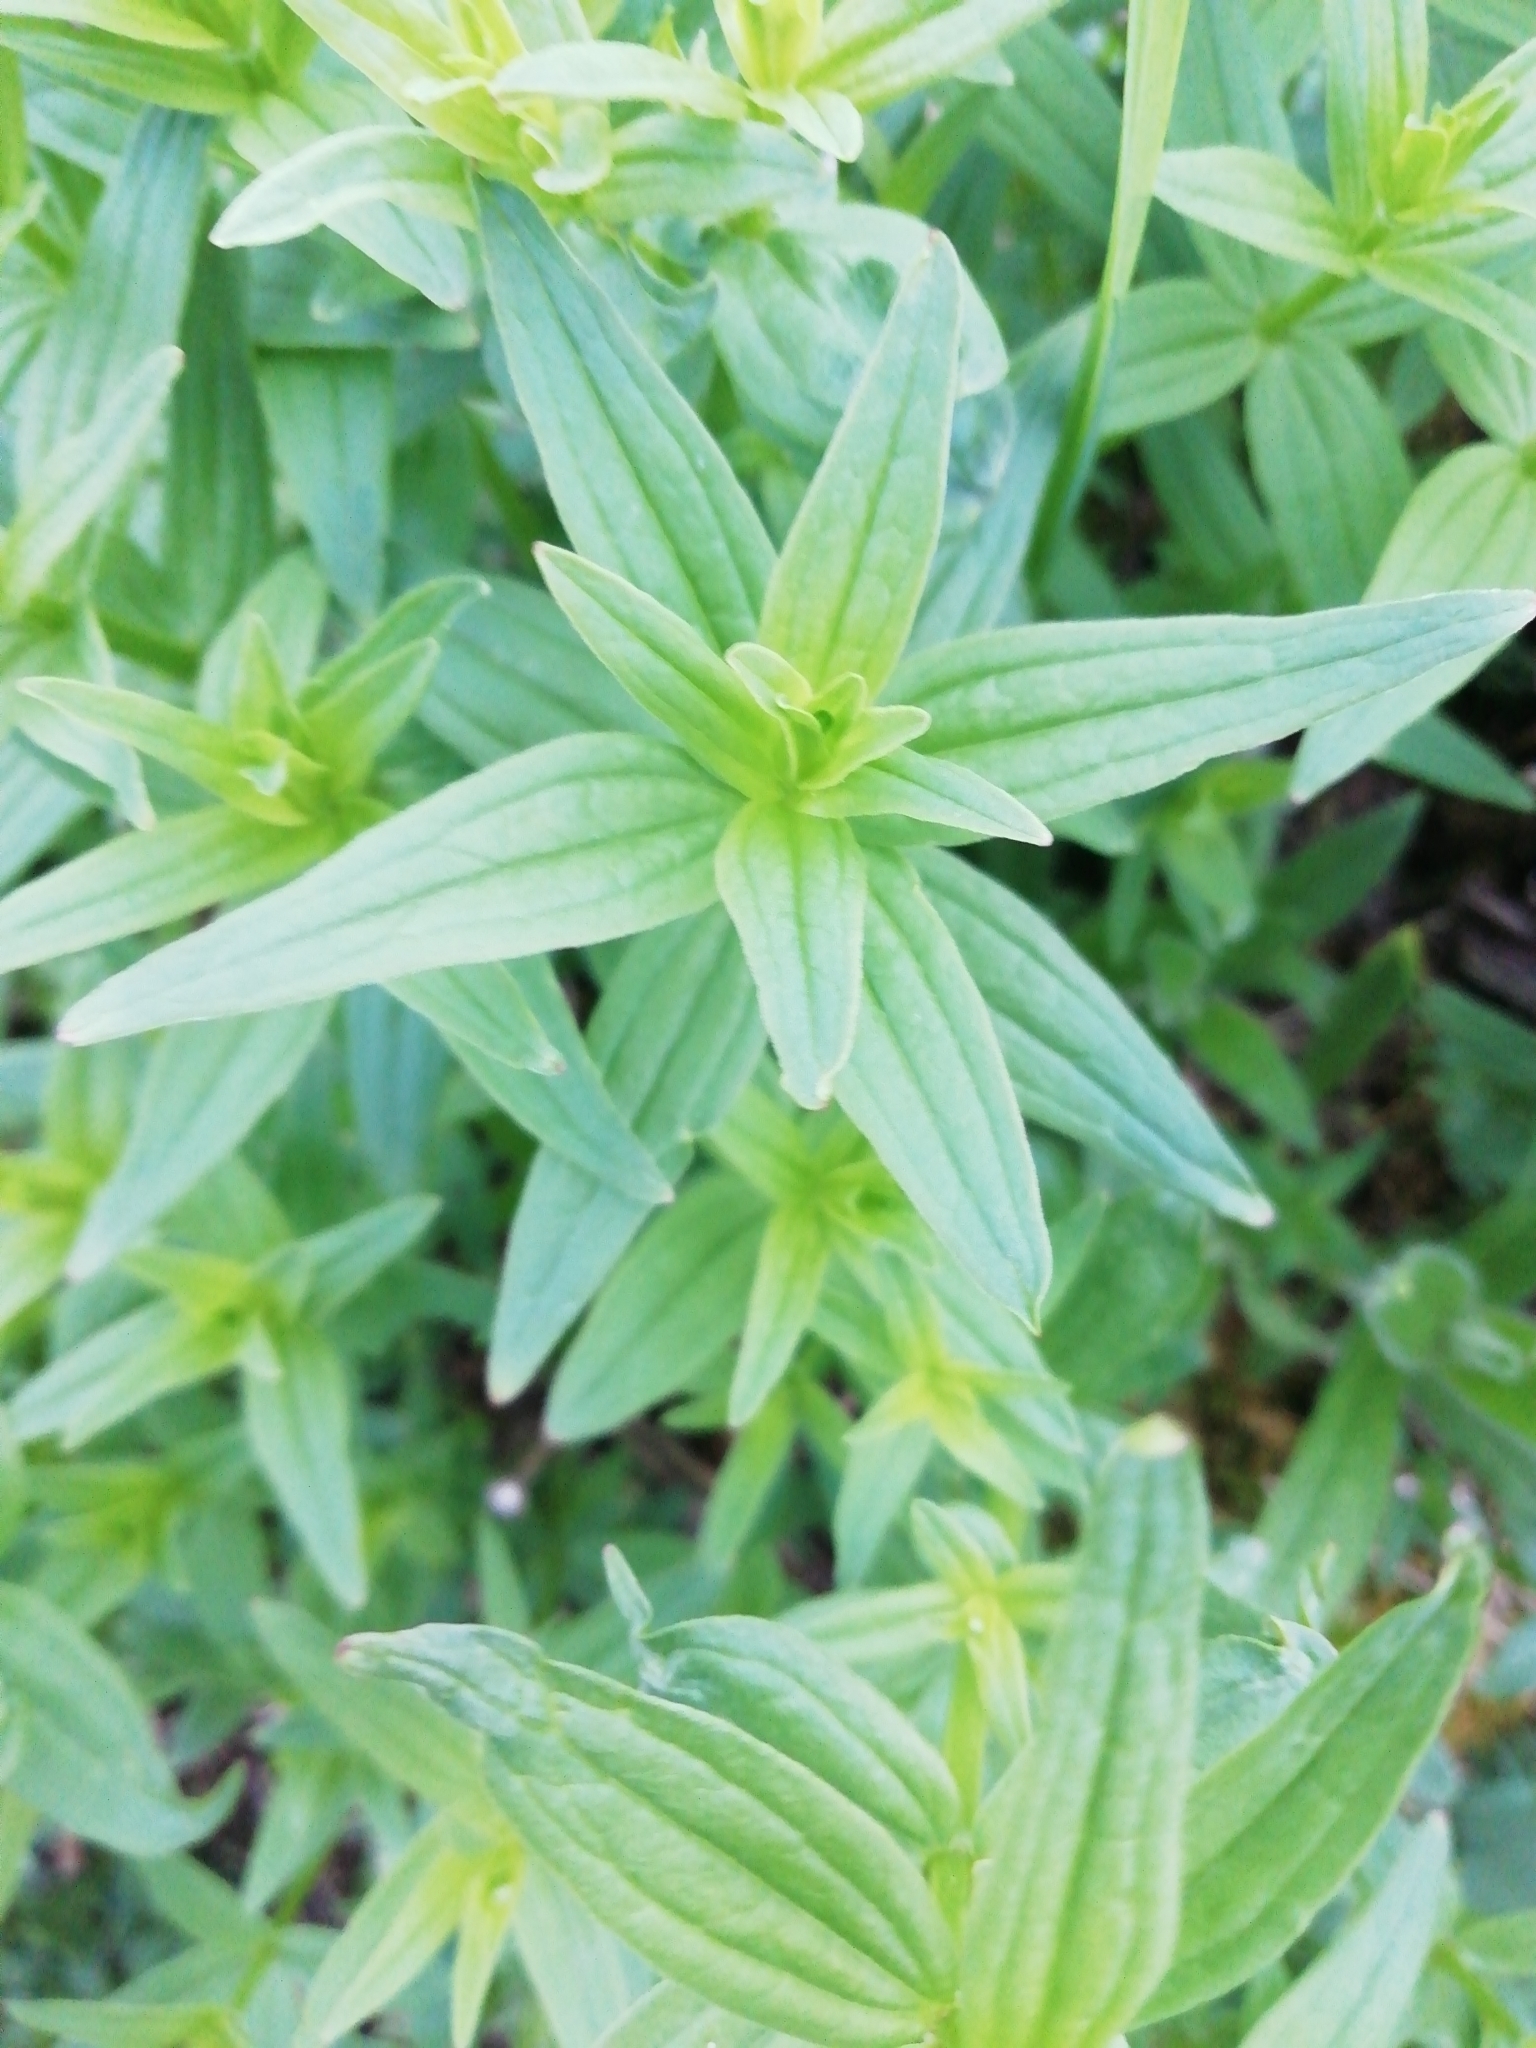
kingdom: Plantae
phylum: Tracheophyta
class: Magnoliopsida
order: Gentianales
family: Rubiaceae
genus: Galium
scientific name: Galium rubioides
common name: European bedstraw
